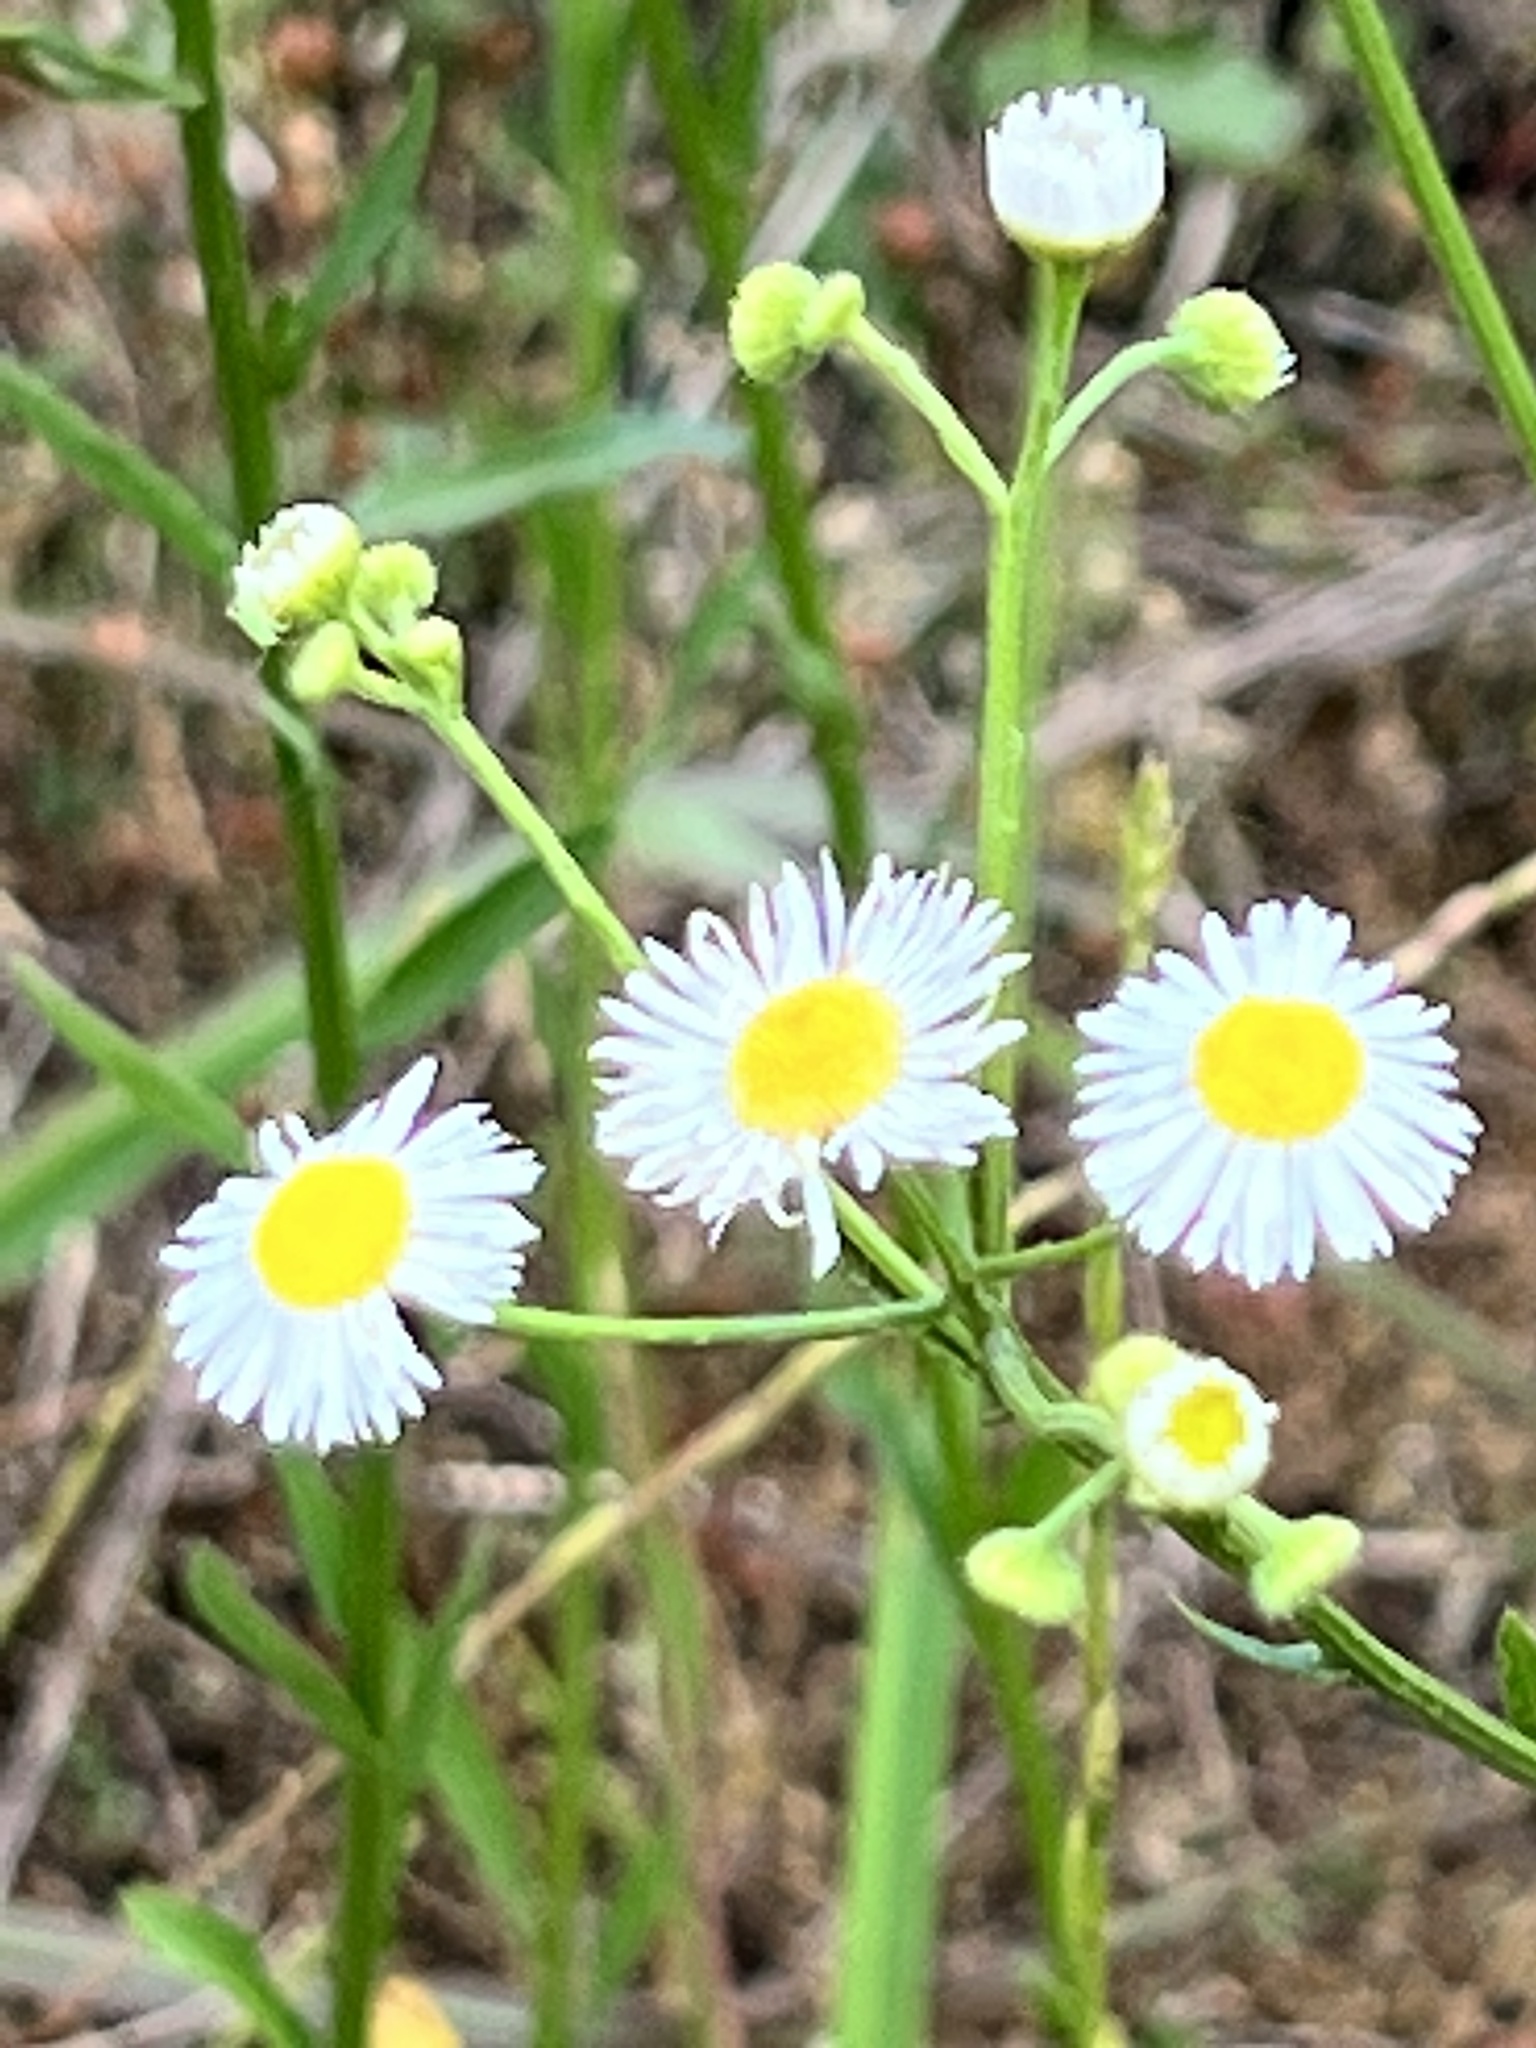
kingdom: Plantae
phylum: Tracheophyta
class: Magnoliopsida
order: Asterales
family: Asteraceae
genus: Erigeron
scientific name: Erigeron strigosus
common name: Common eastern fleabane
